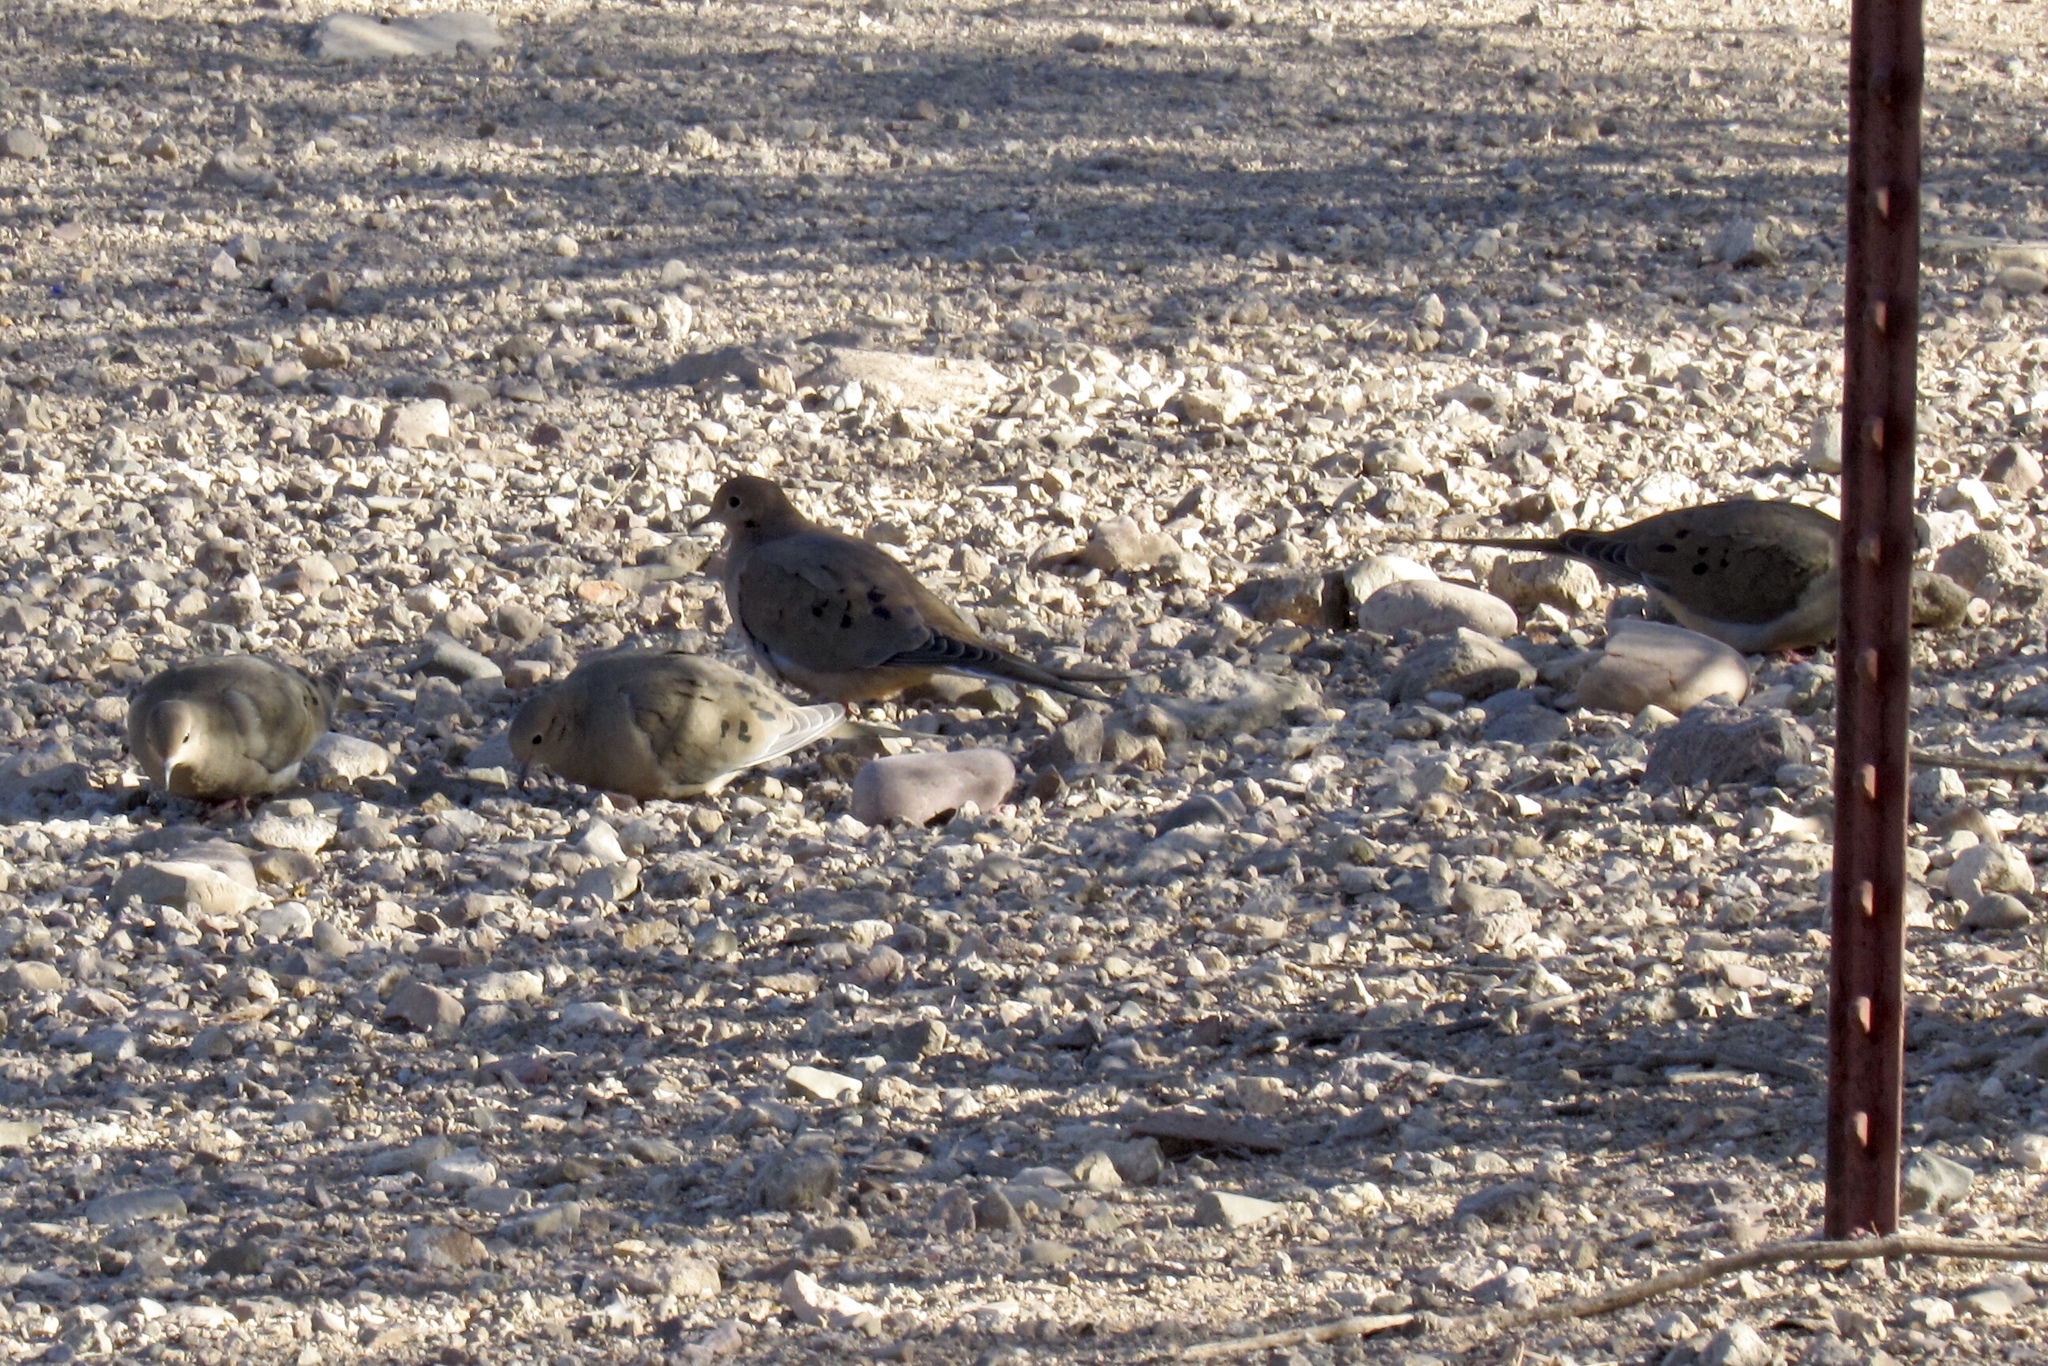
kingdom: Animalia
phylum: Chordata
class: Aves
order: Columbiformes
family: Columbidae
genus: Zenaida
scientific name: Zenaida macroura
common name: Mourning dove
